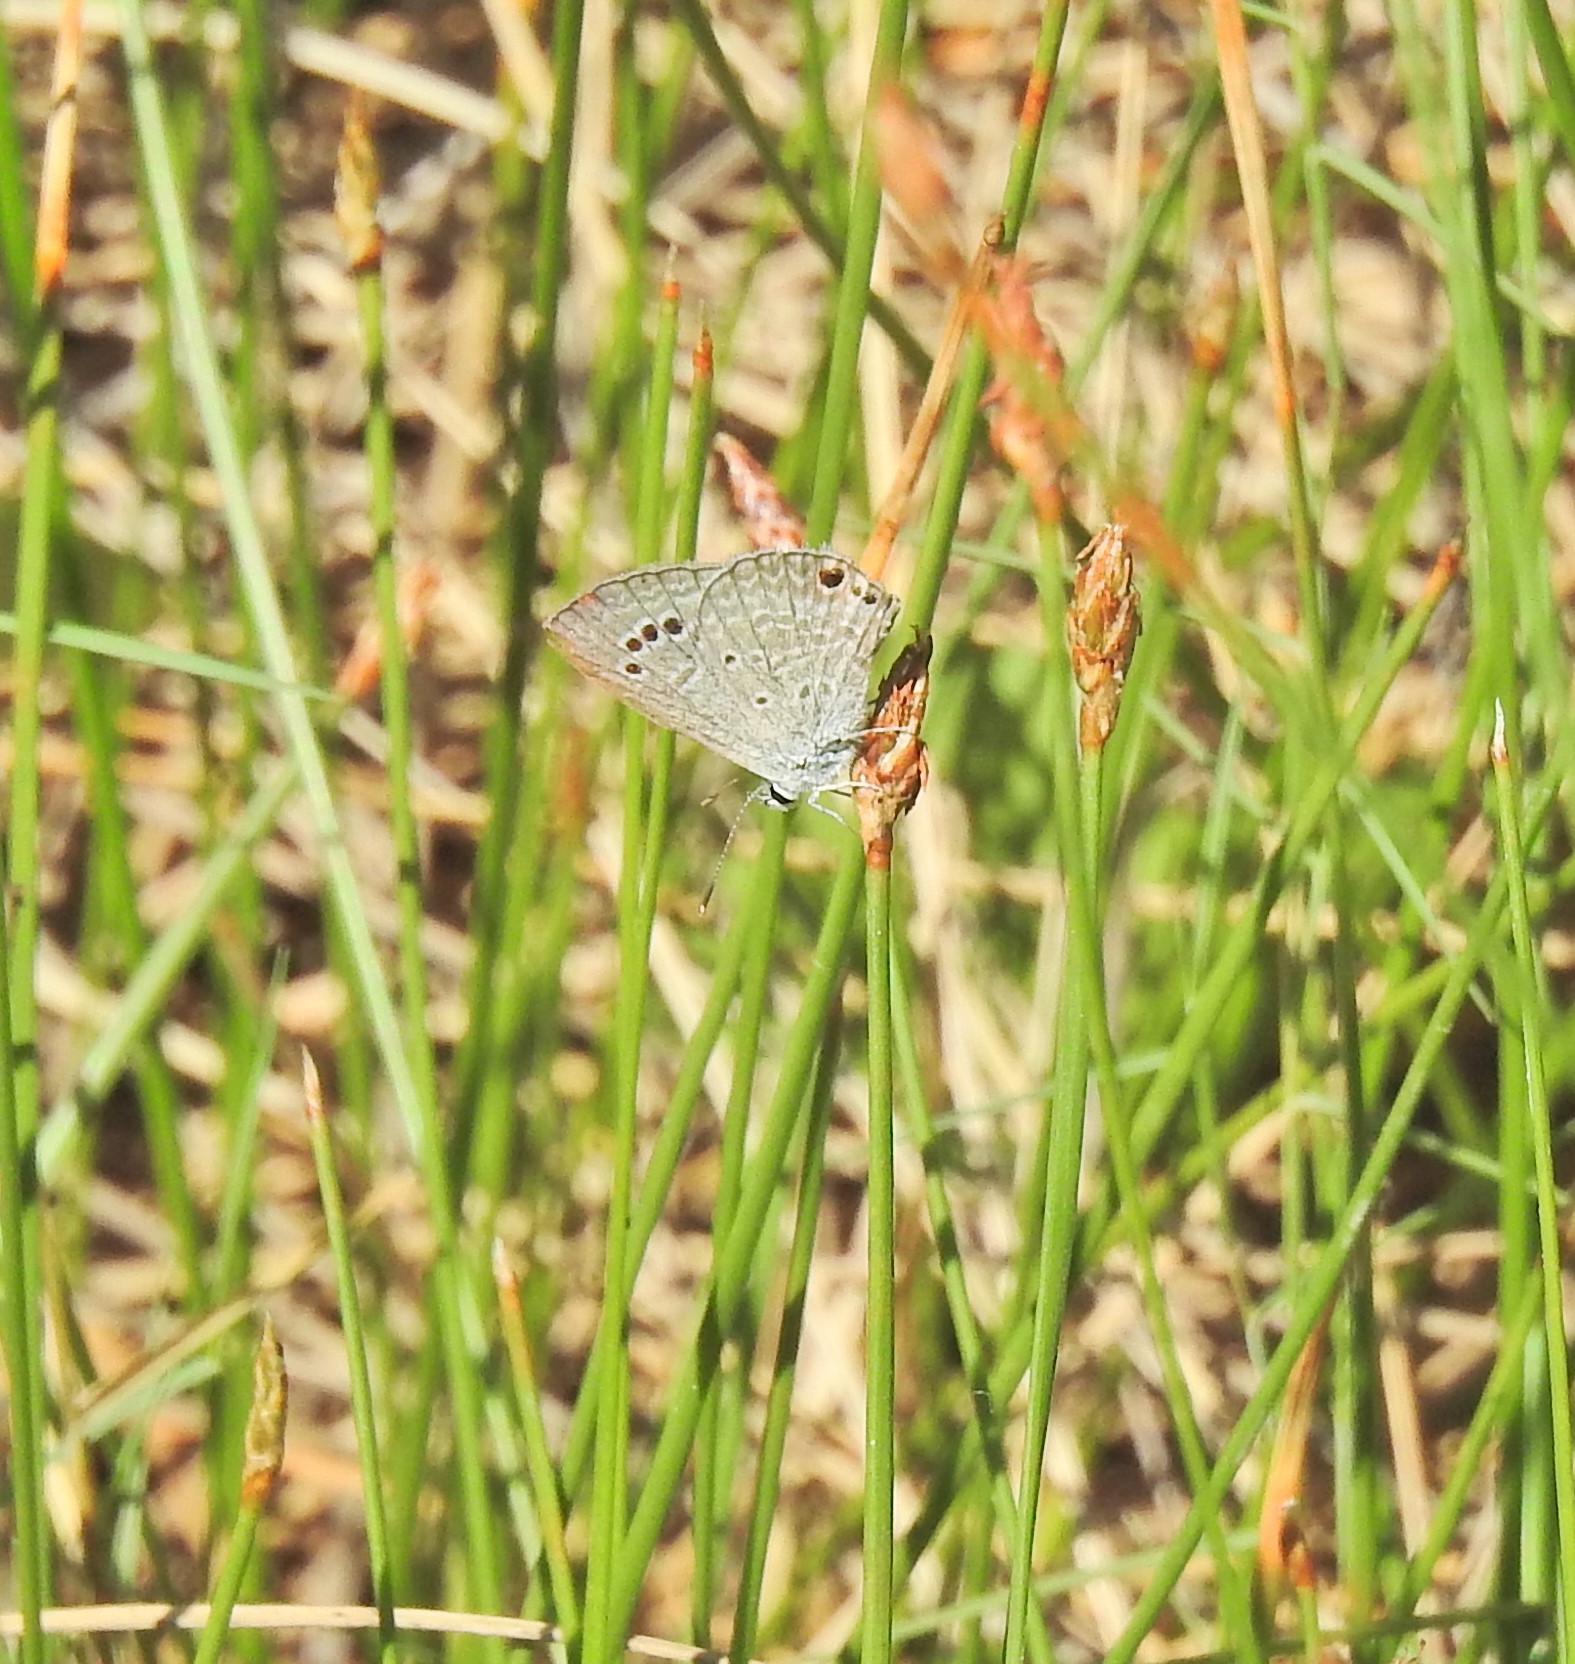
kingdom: Animalia
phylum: Arthropoda
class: Insecta
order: Lepidoptera
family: Lycaenidae
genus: Echinargus
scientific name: Echinargus isola
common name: Reakirt's blue
